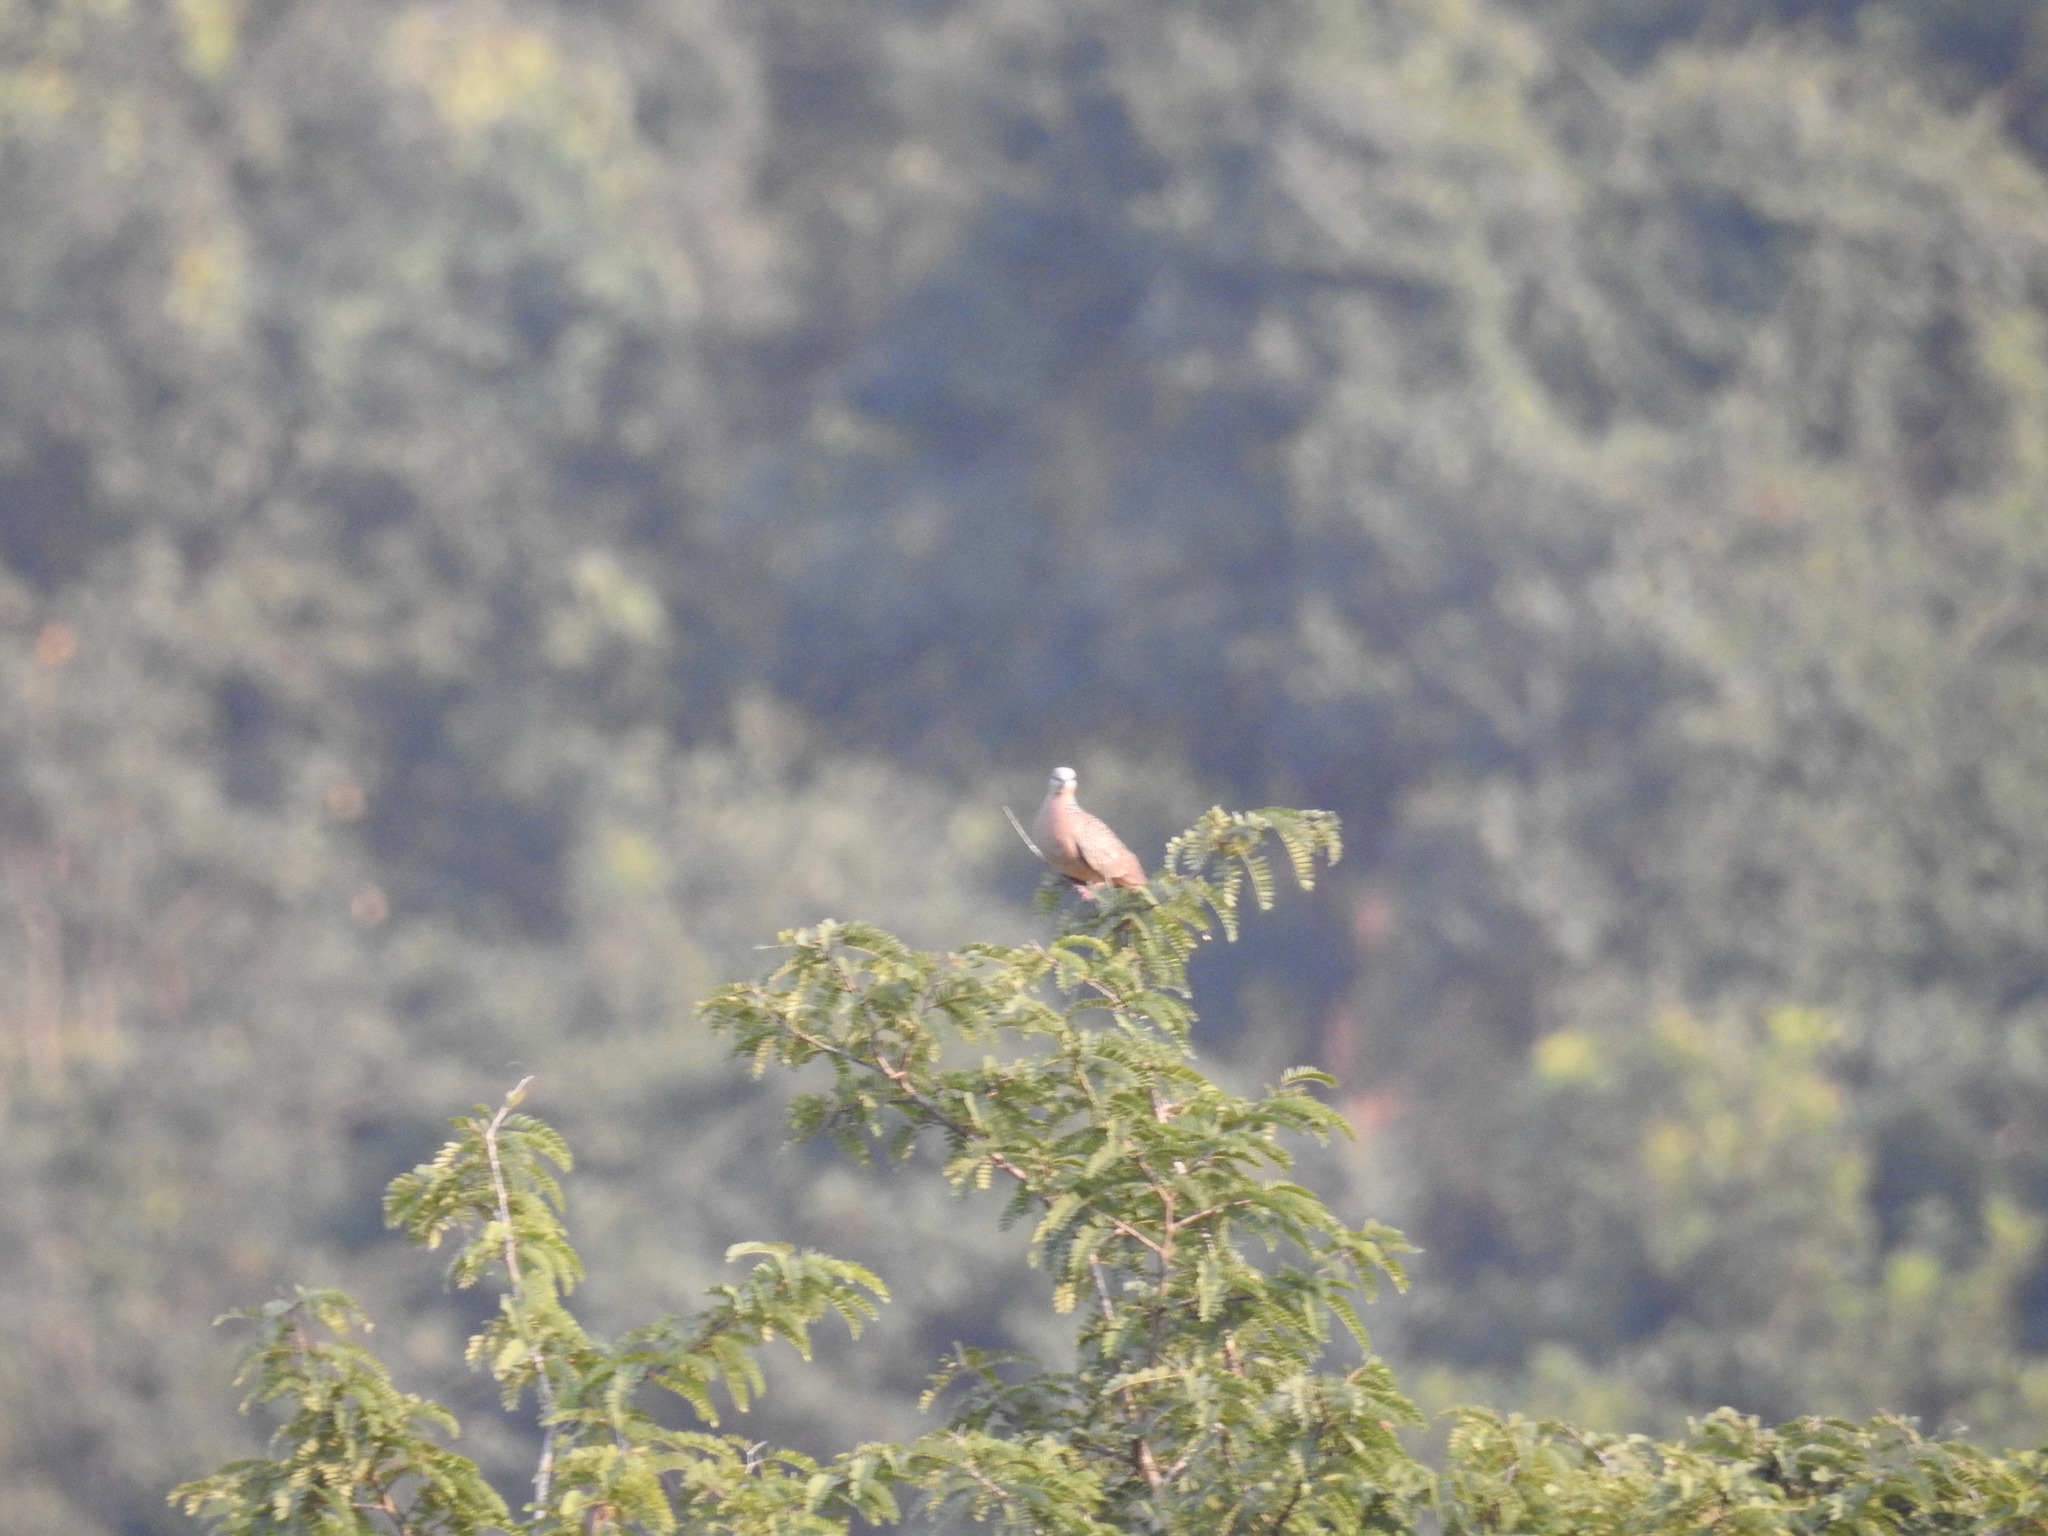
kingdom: Animalia
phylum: Chordata
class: Aves
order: Columbiformes
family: Columbidae
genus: Spilopelia
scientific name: Spilopelia chinensis
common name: Spotted dove
